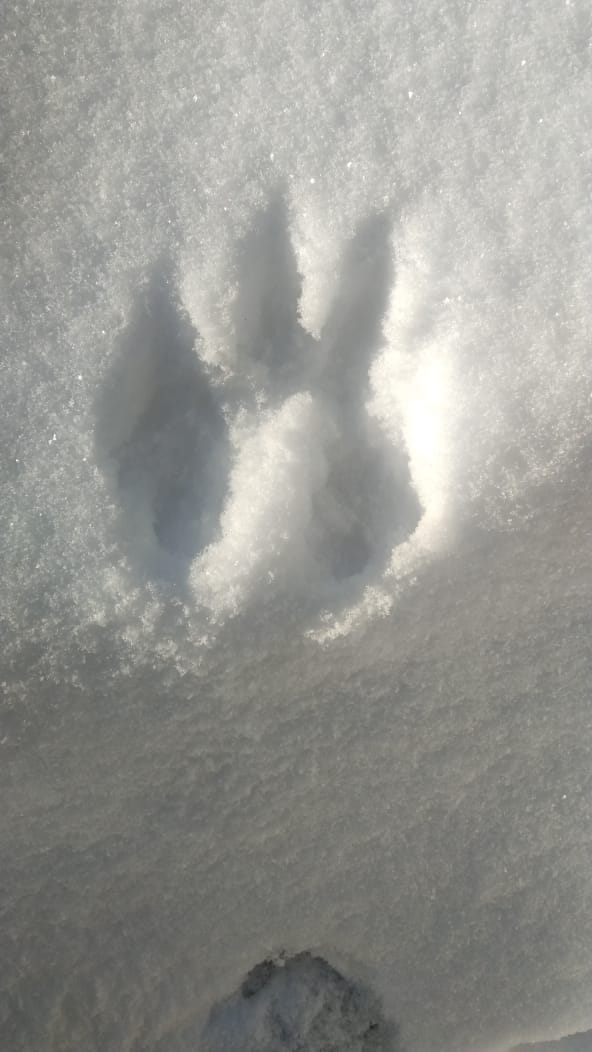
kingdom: Animalia
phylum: Chordata
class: Mammalia
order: Rodentia
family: Sciuridae
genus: Sciurus
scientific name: Sciurus vulgaris
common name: Eurasian red squirrel
